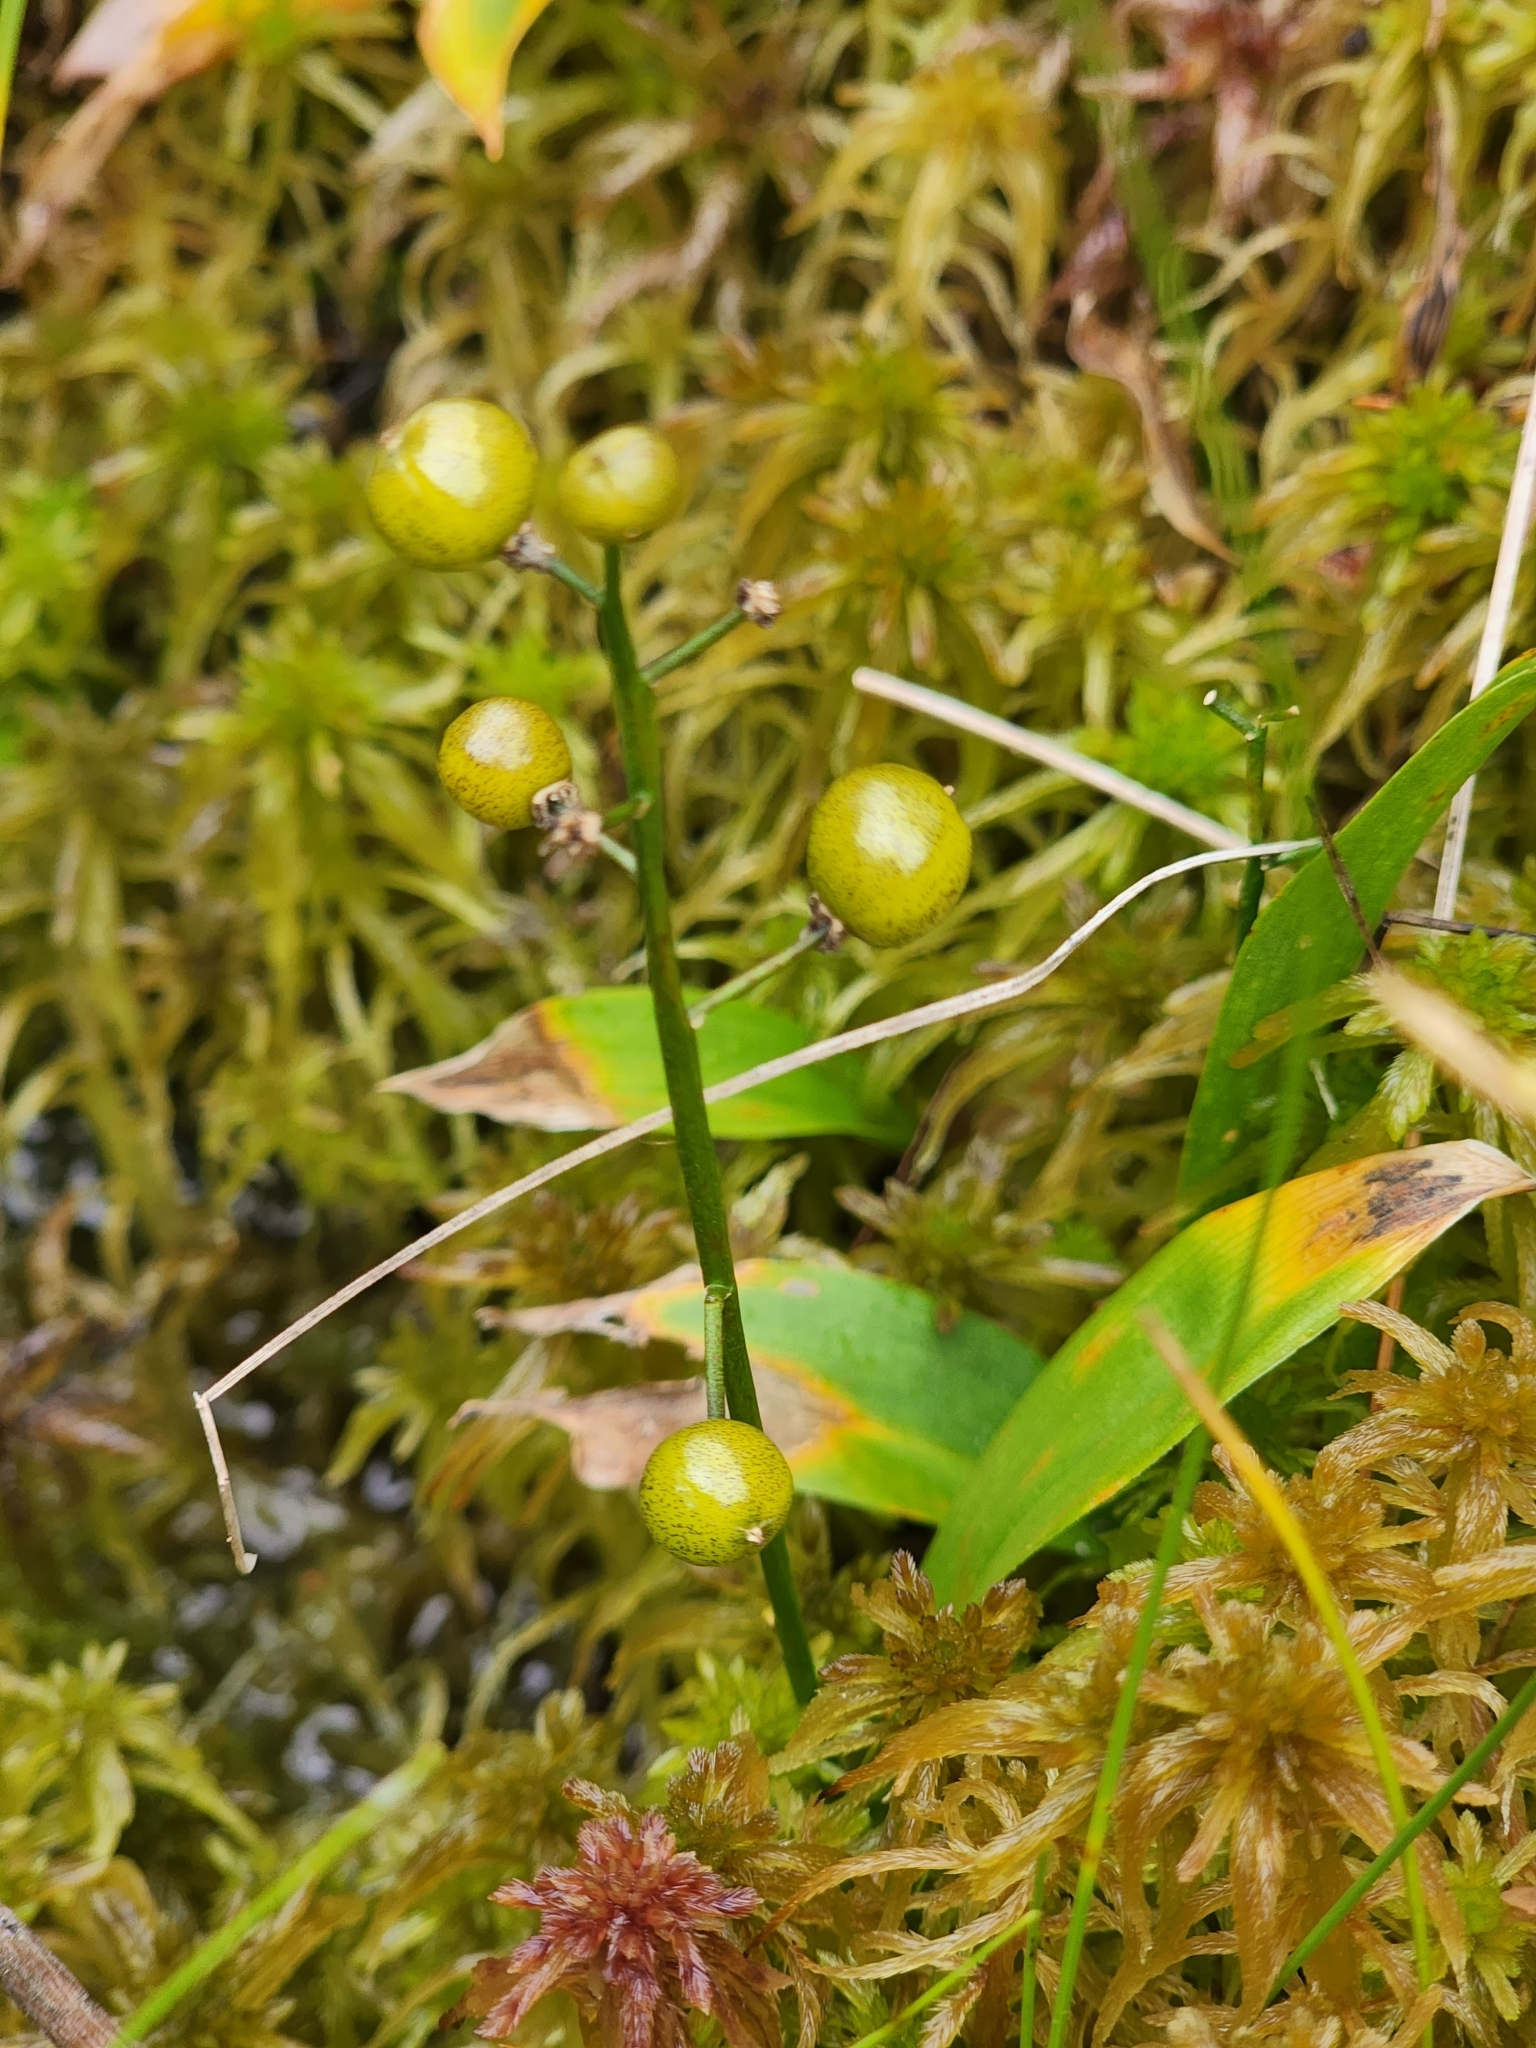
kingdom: Plantae
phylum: Tracheophyta
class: Liliopsida
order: Asparagales
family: Asparagaceae
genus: Maianthemum
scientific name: Maianthemum trifolium
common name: Swamp false solomon's seal
